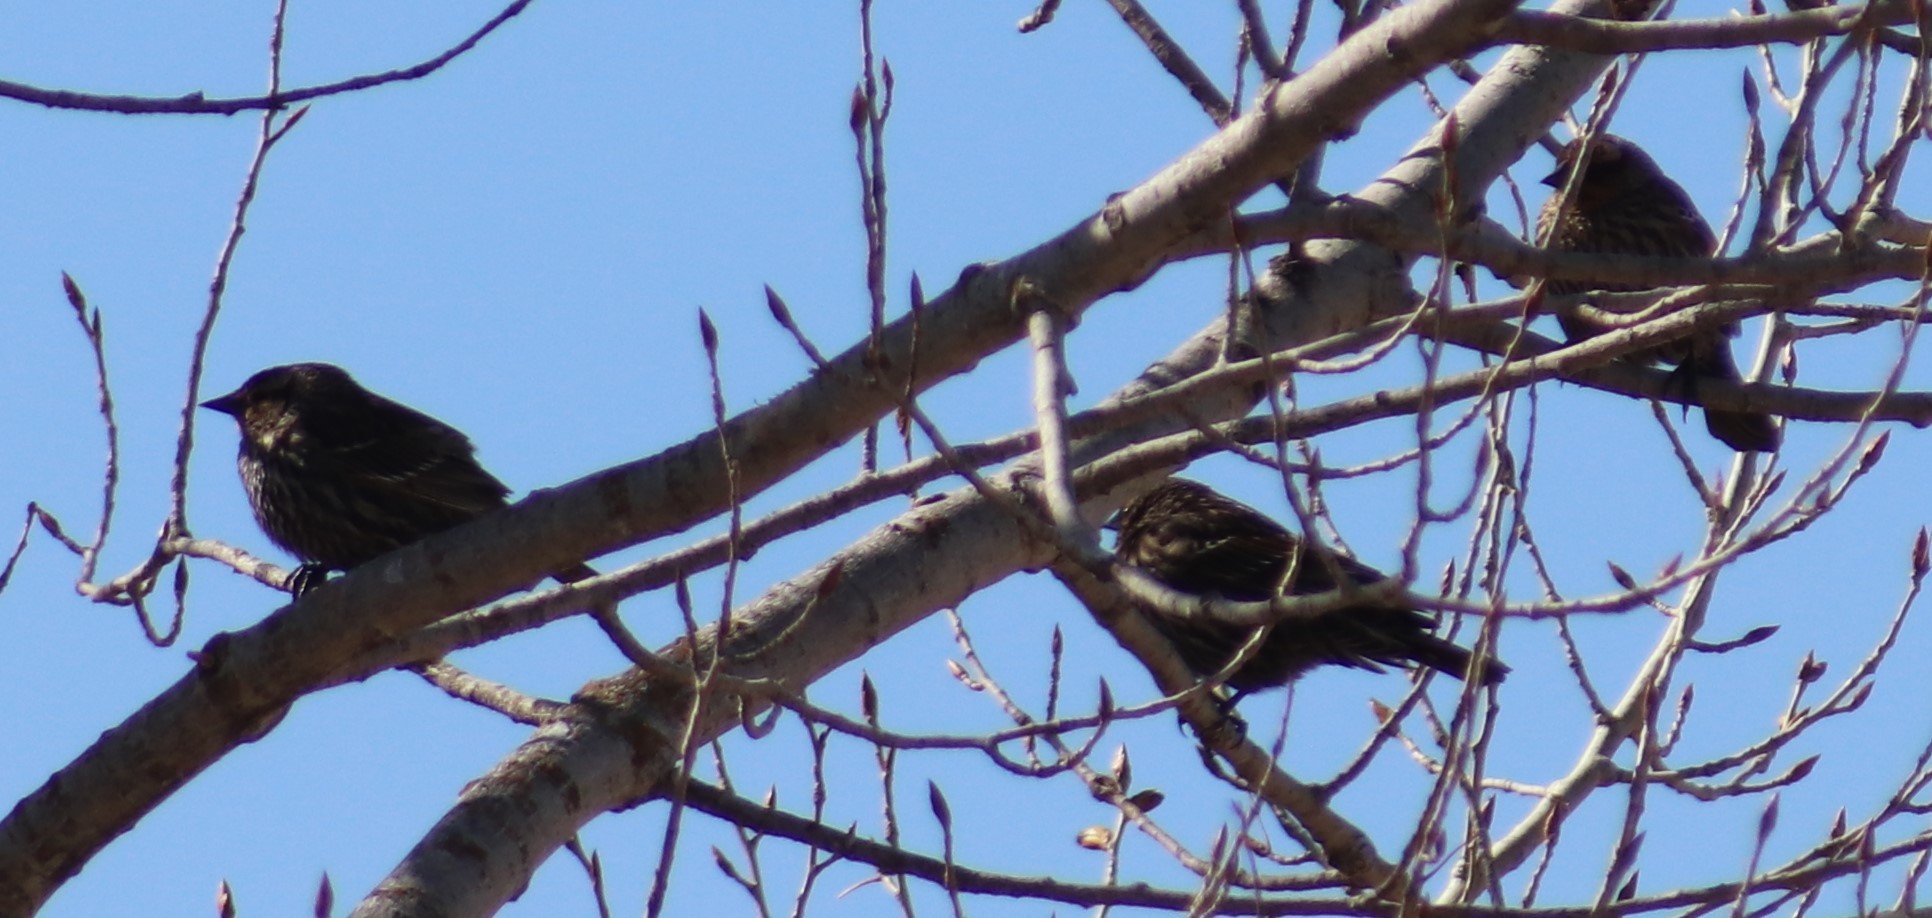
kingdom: Animalia
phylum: Chordata
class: Aves
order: Passeriformes
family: Icteridae
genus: Agelaius
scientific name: Agelaius phoeniceus
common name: Red-winged blackbird
